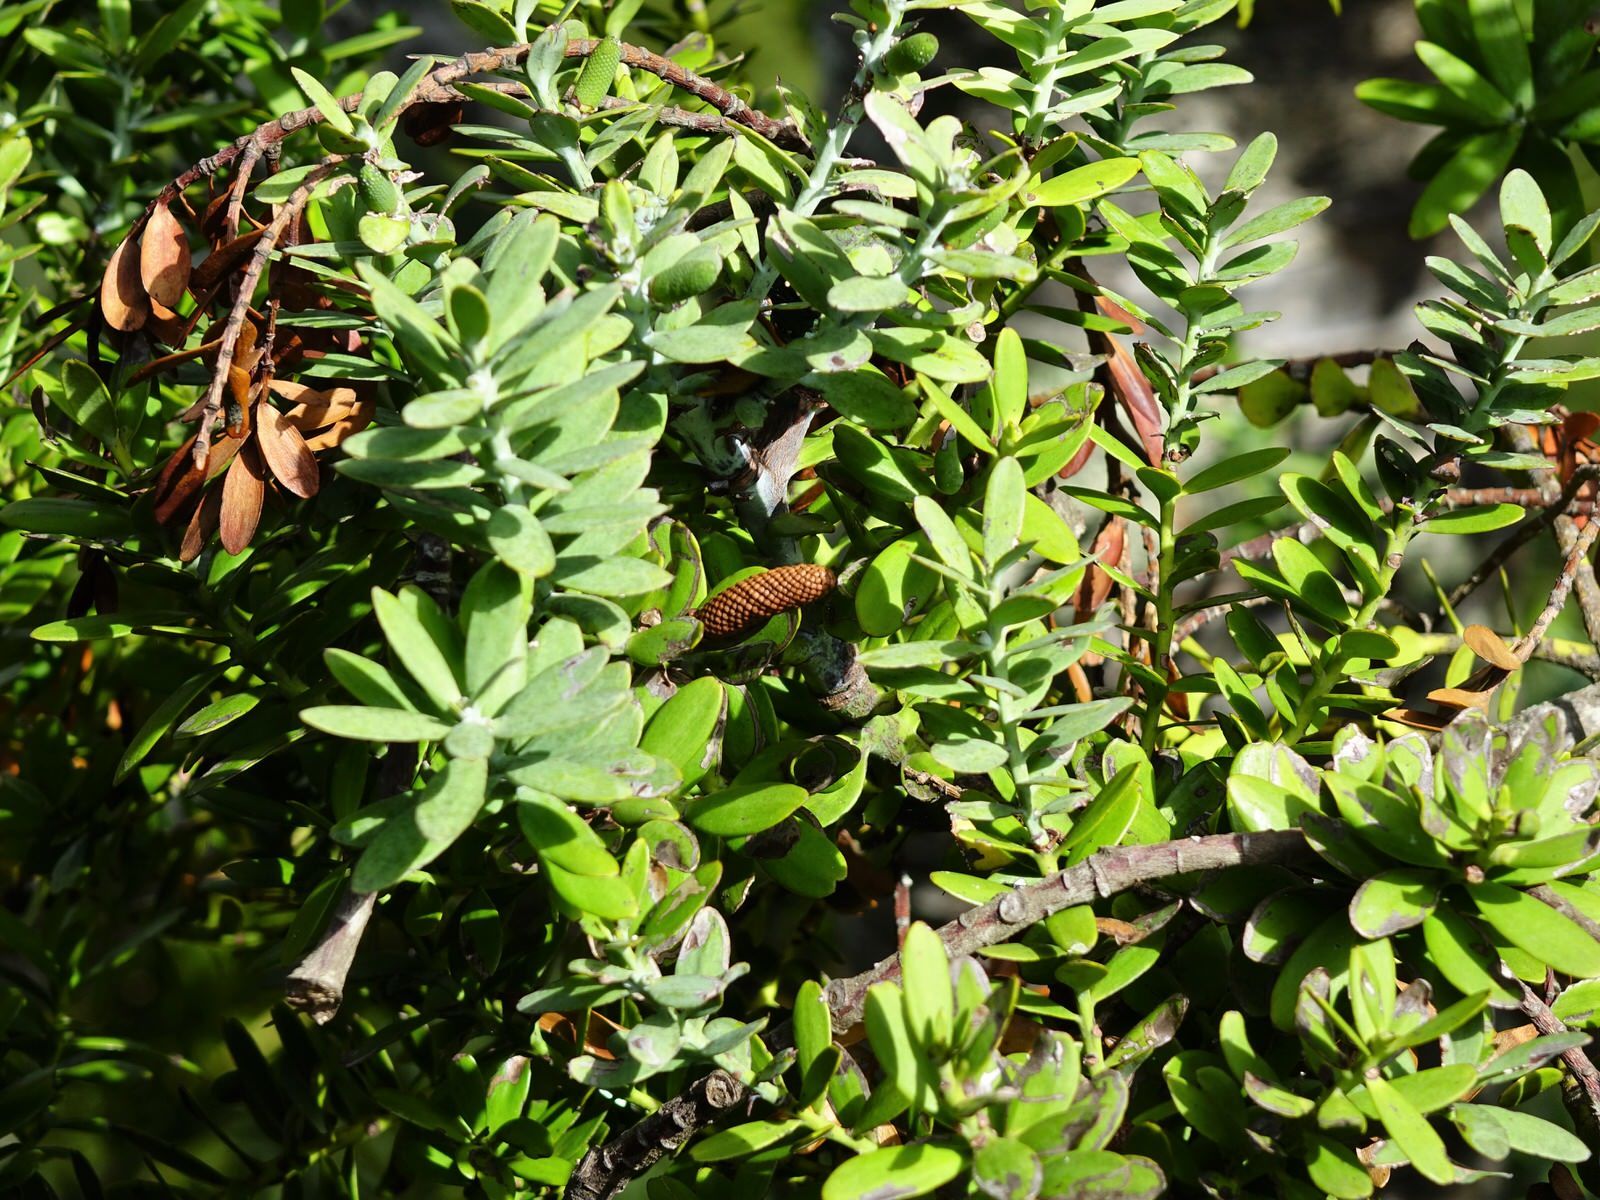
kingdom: Plantae
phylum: Tracheophyta
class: Pinopsida
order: Pinales
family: Araucariaceae
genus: Agathis
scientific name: Agathis australis
